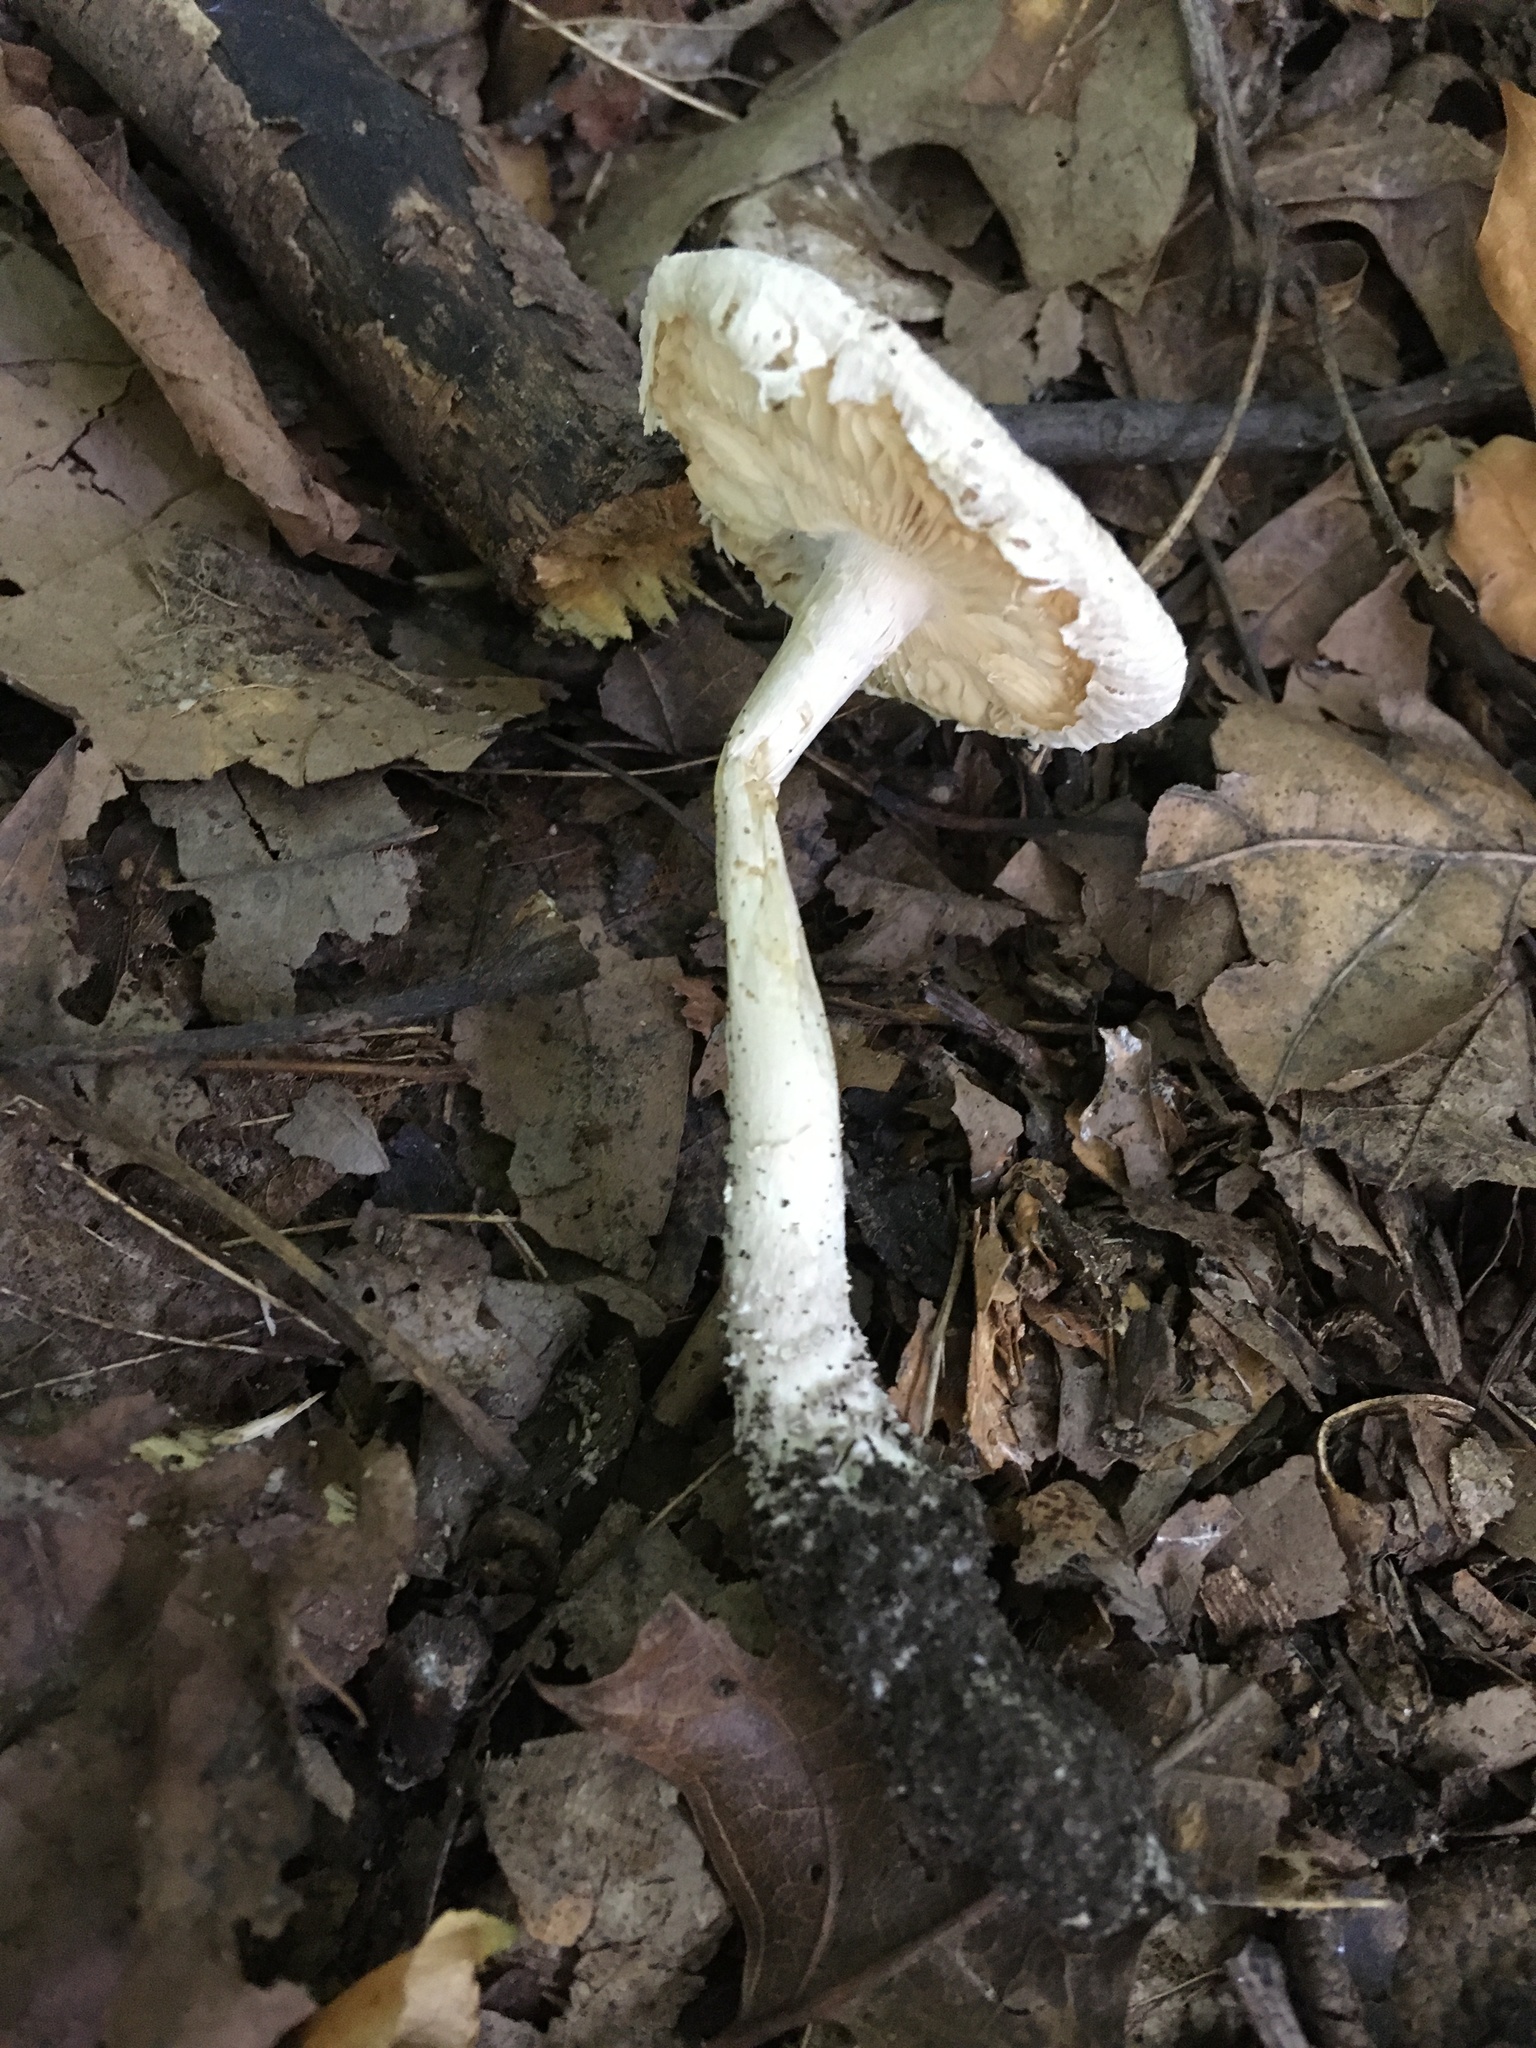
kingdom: Fungi
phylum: Basidiomycota
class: Agaricomycetes
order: Agaricales
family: Amanitaceae
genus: Amanita
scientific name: Amanita onusta
